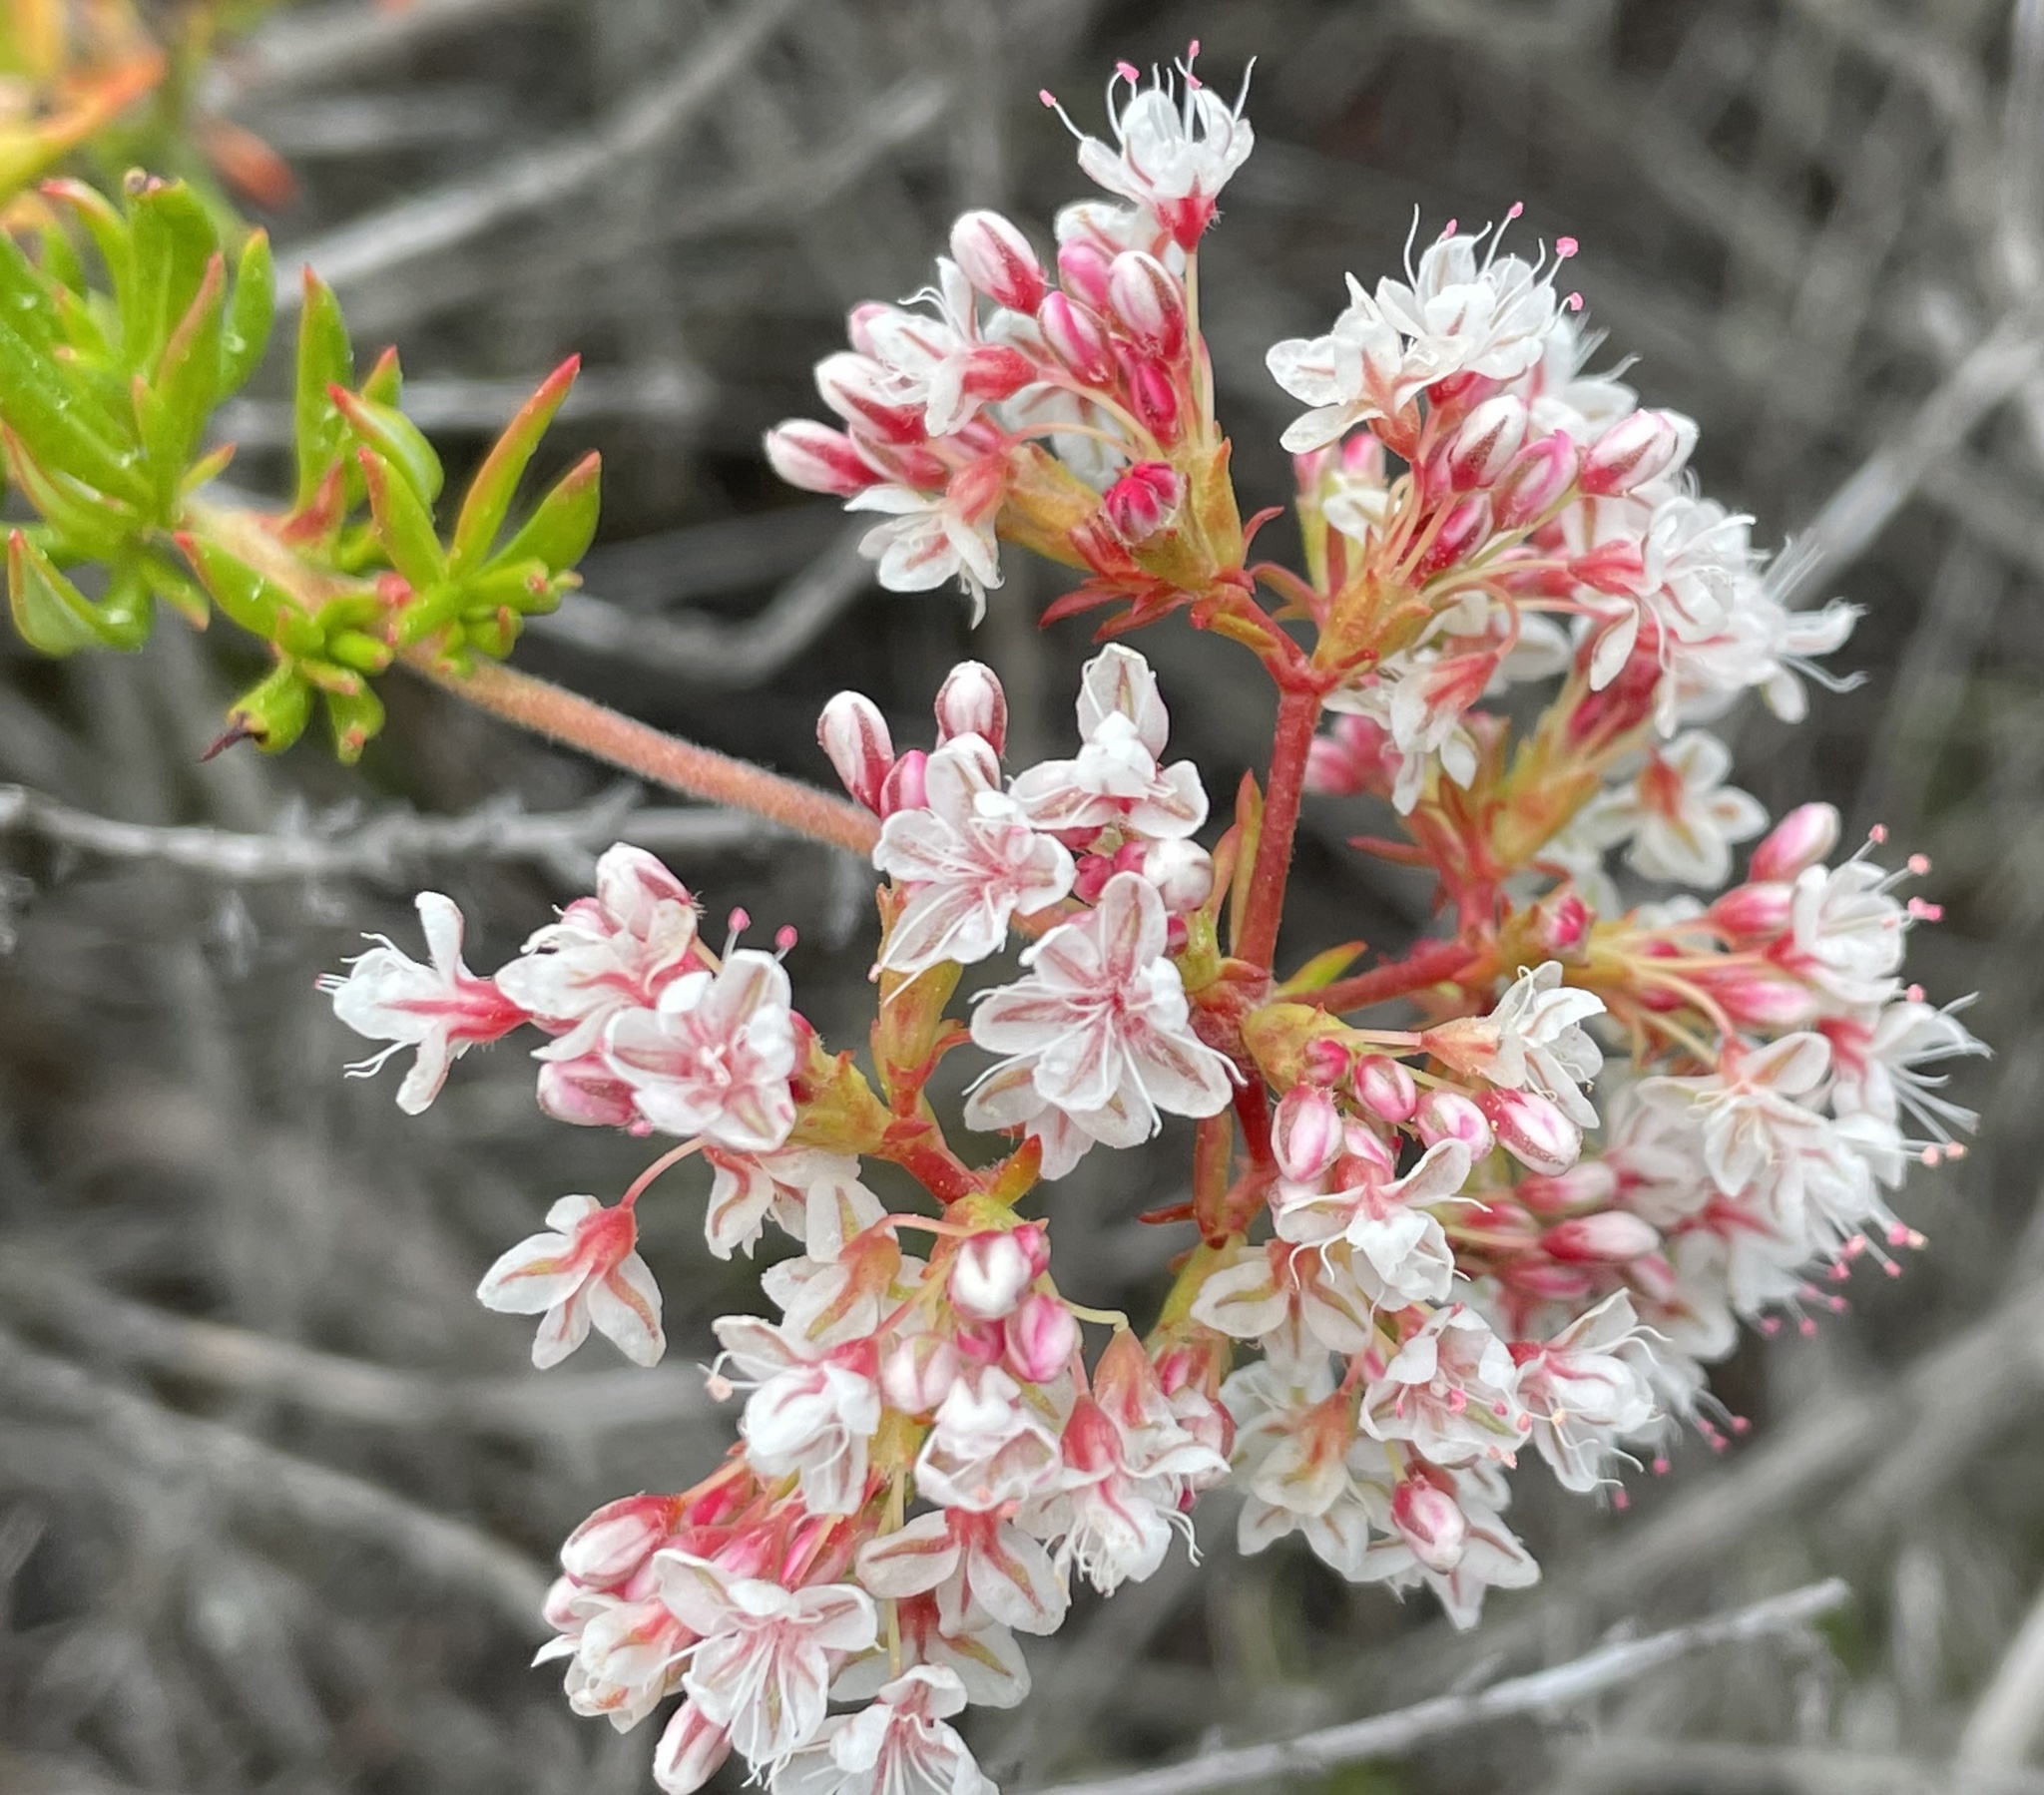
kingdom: Plantae
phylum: Tracheophyta
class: Magnoliopsida
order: Caryophyllales
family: Polygonaceae
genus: Eriogonum
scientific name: Eriogonum fasciculatum
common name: California wild buckwheat
